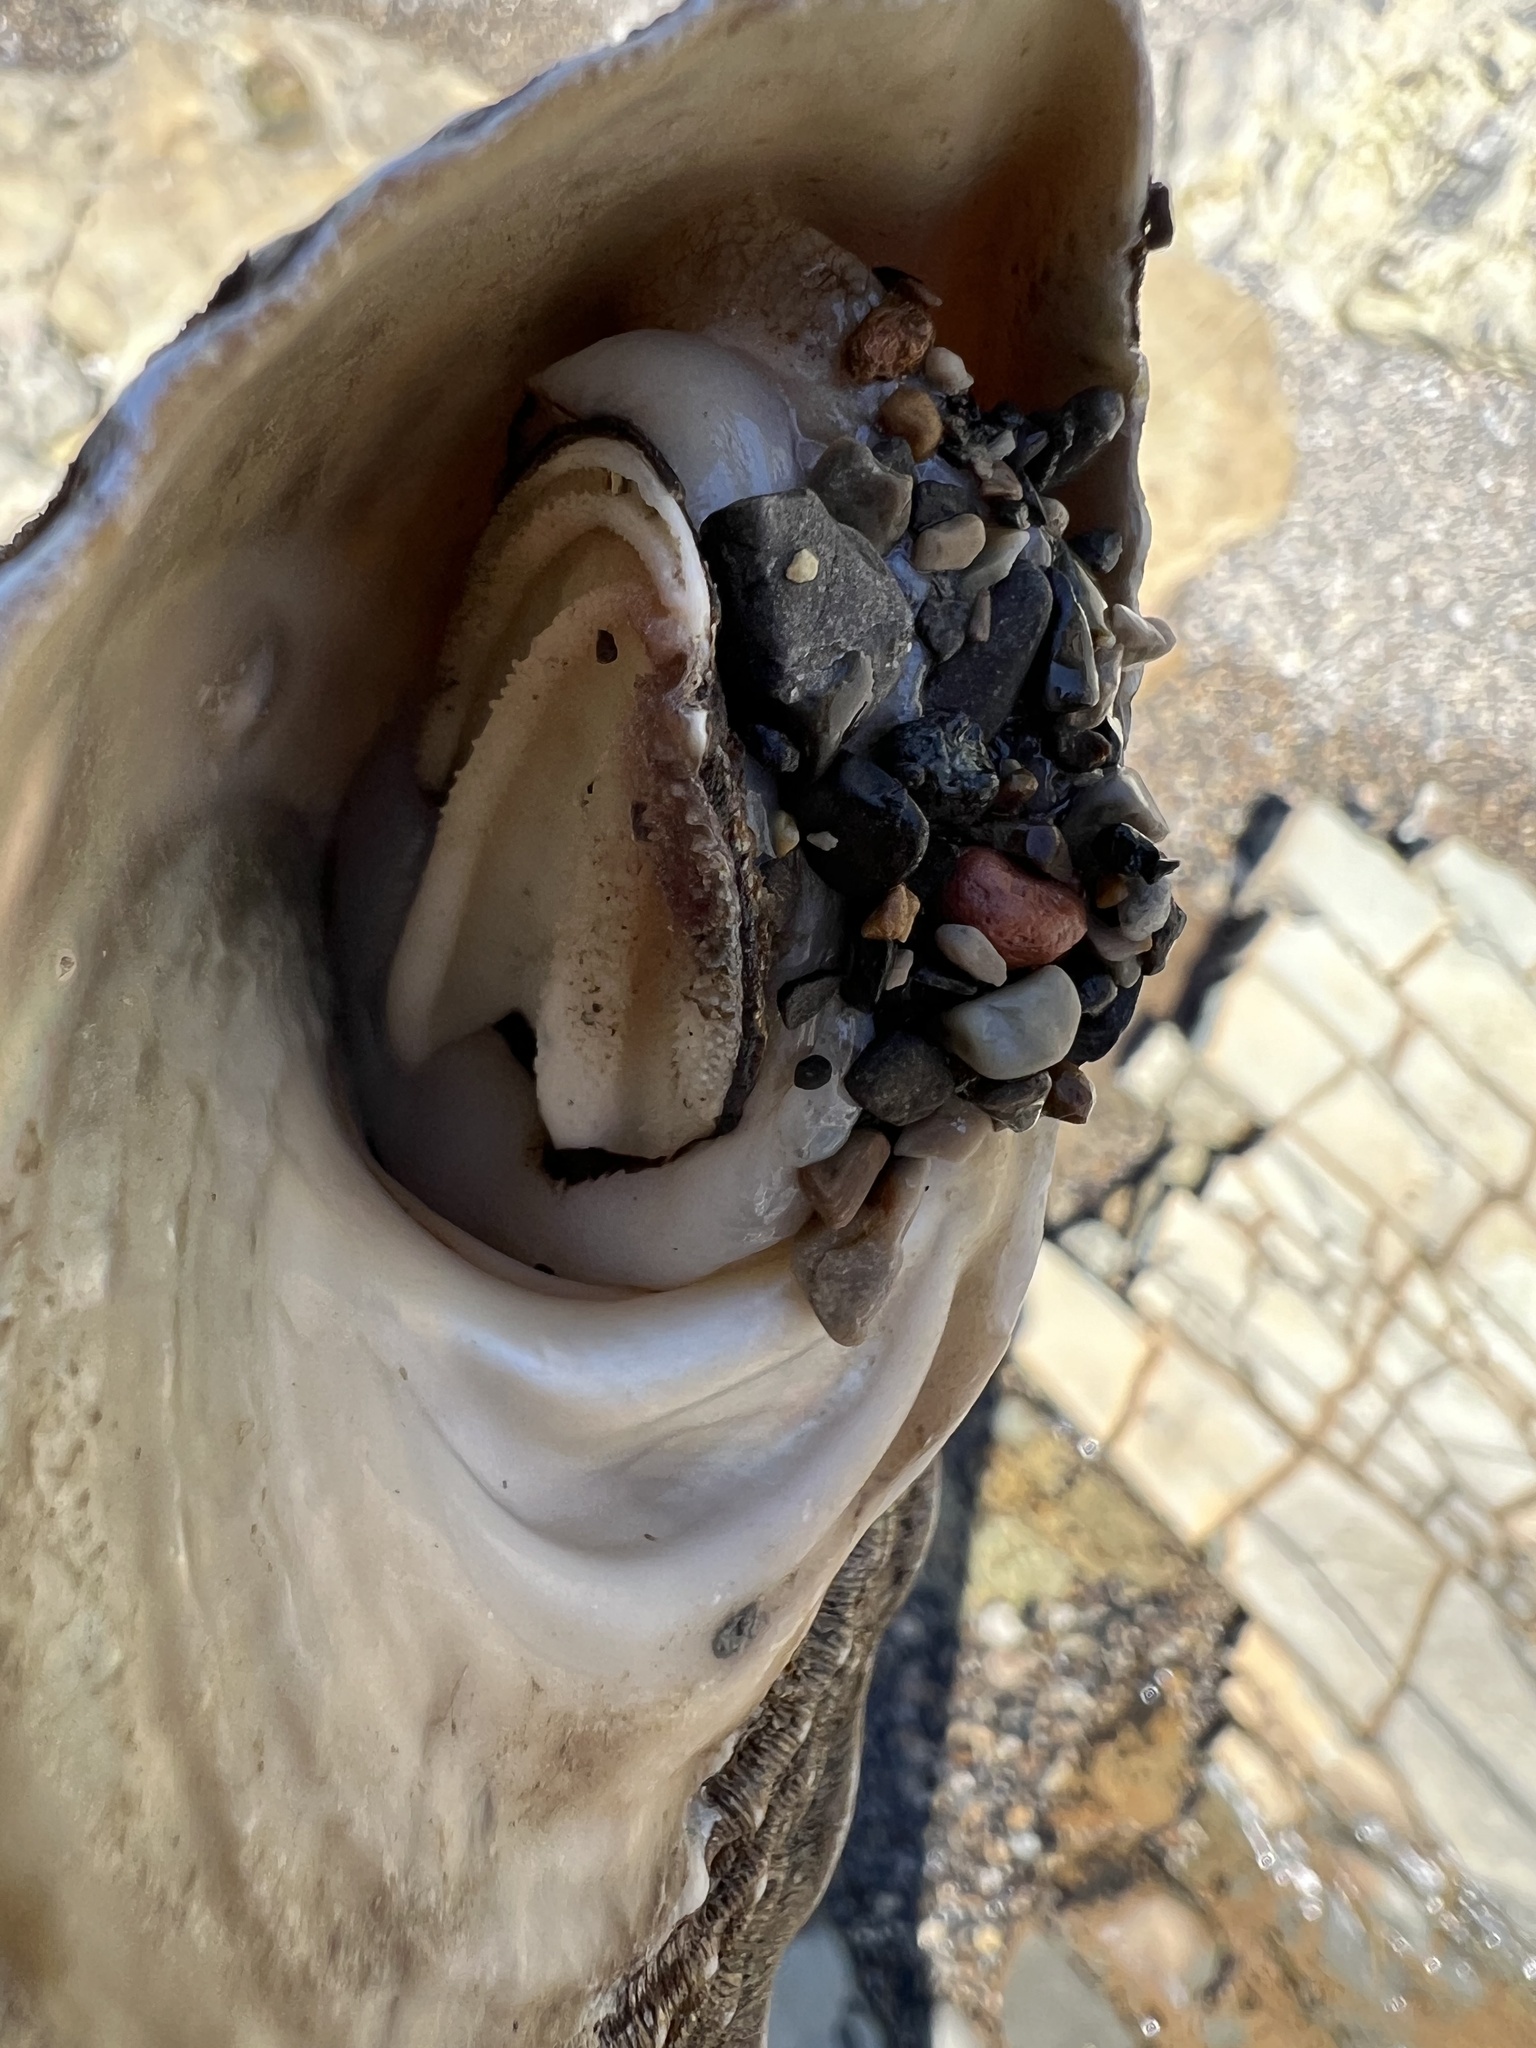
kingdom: Animalia
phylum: Mollusca
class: Gastropoda
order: Trochida
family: Turbinidae
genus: Megastraea
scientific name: Megastraea undosa
